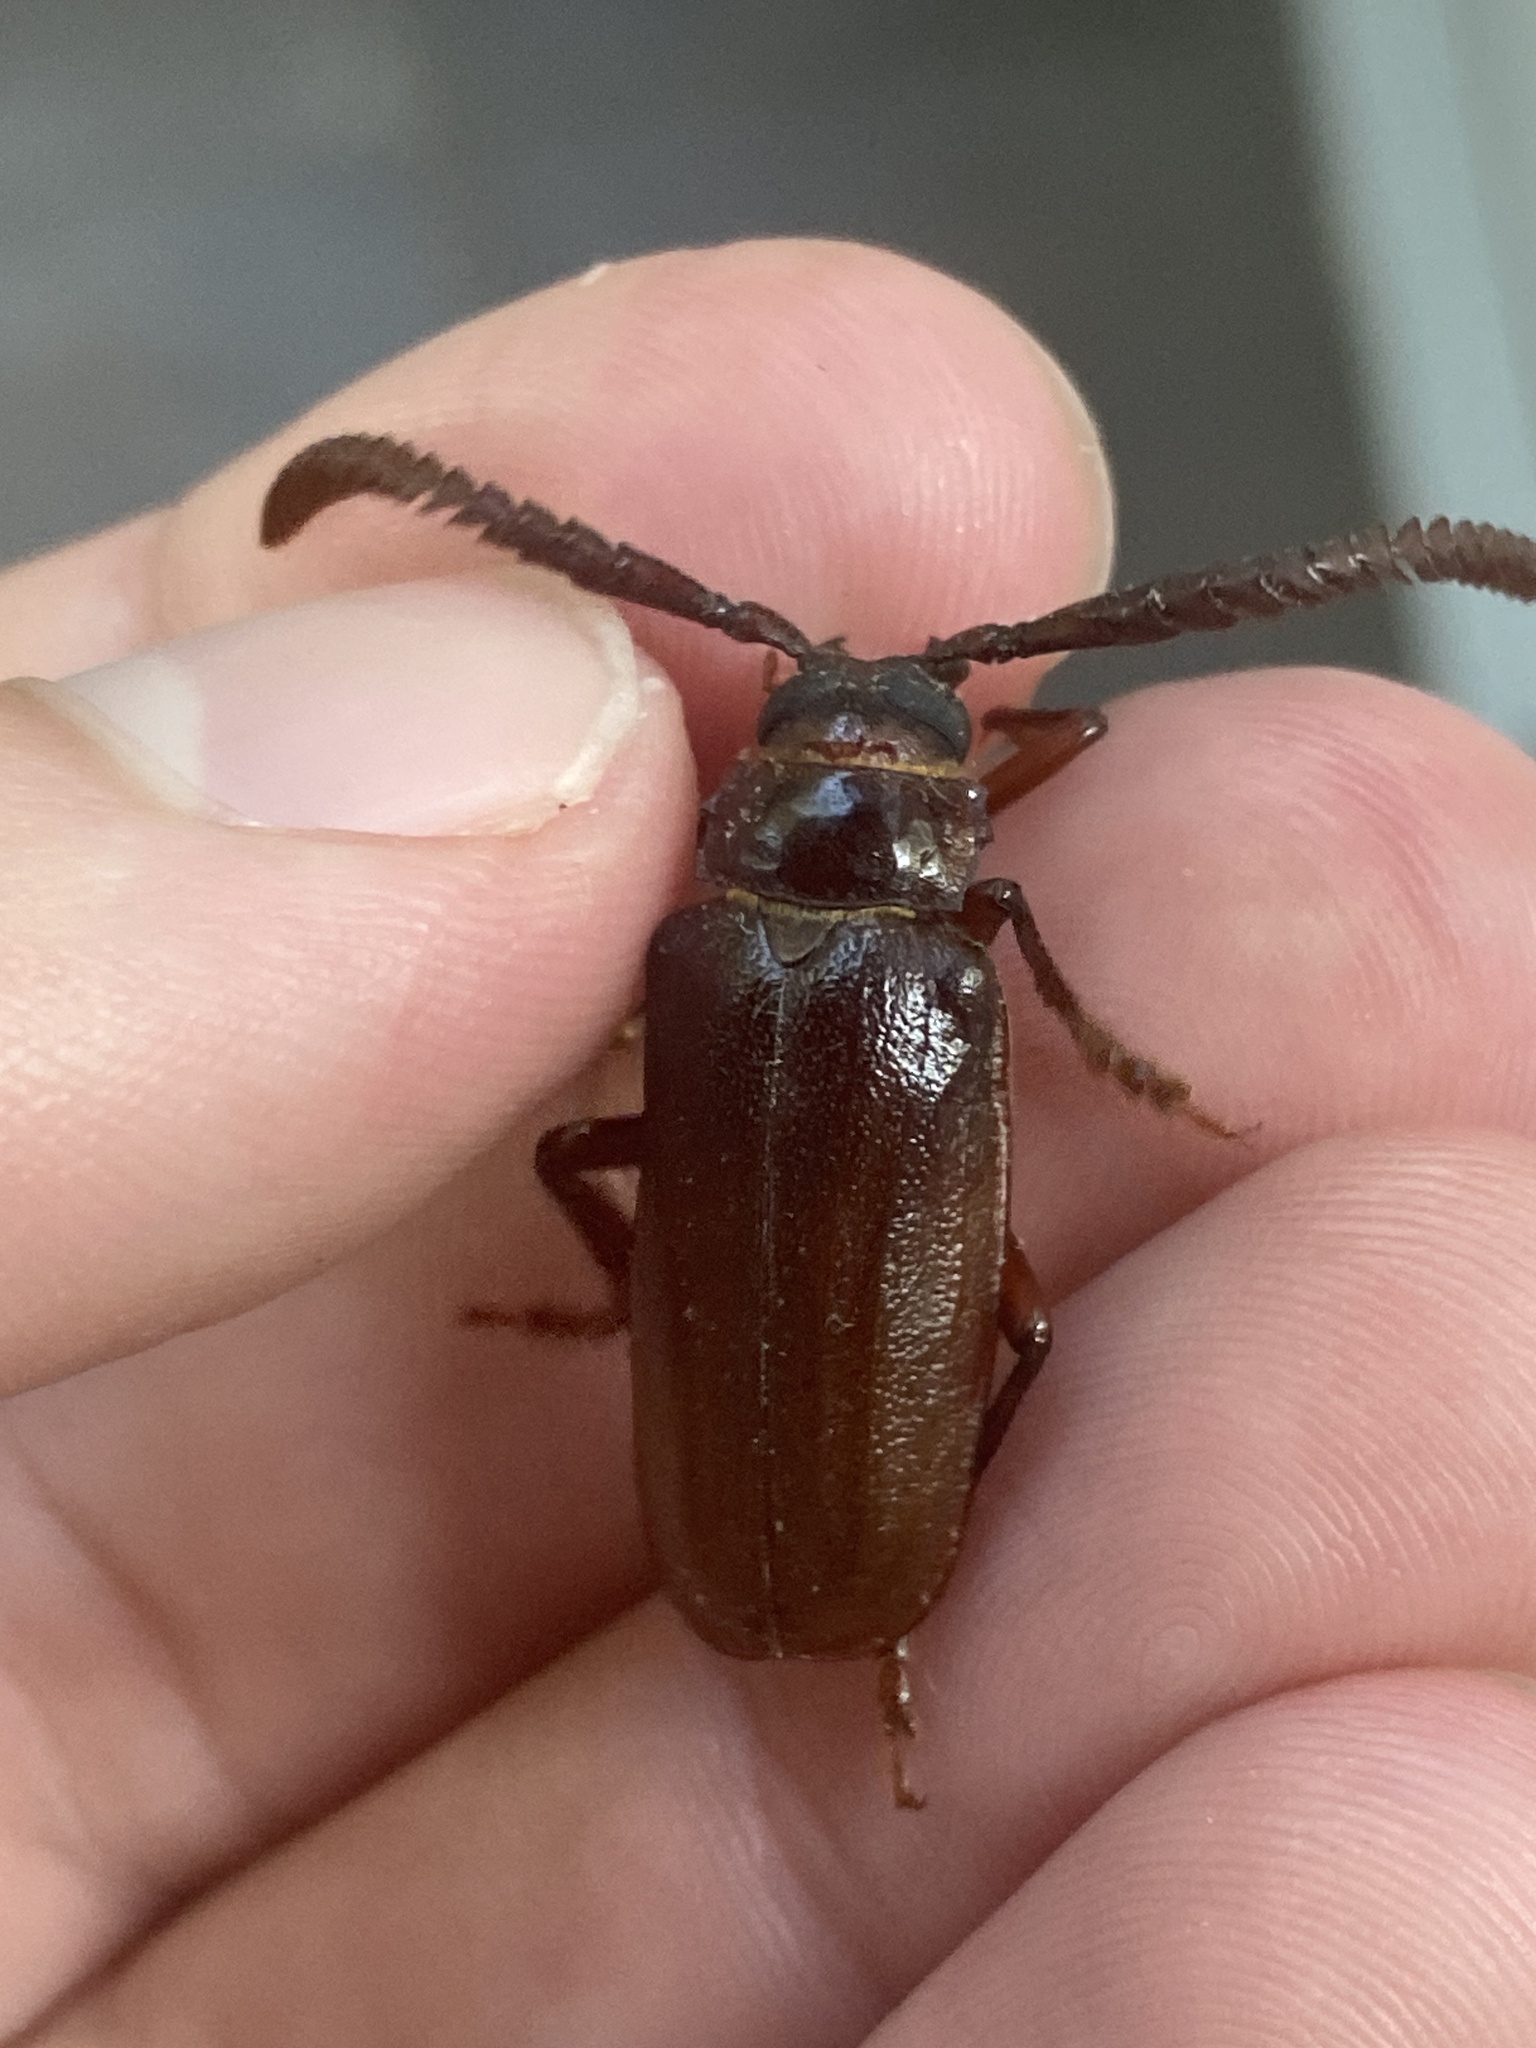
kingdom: Animalia
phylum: Arthropoda
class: Insecta
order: Coleoptera
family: Cerambycidae
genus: Prionus
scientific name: Prionus imbricornis
